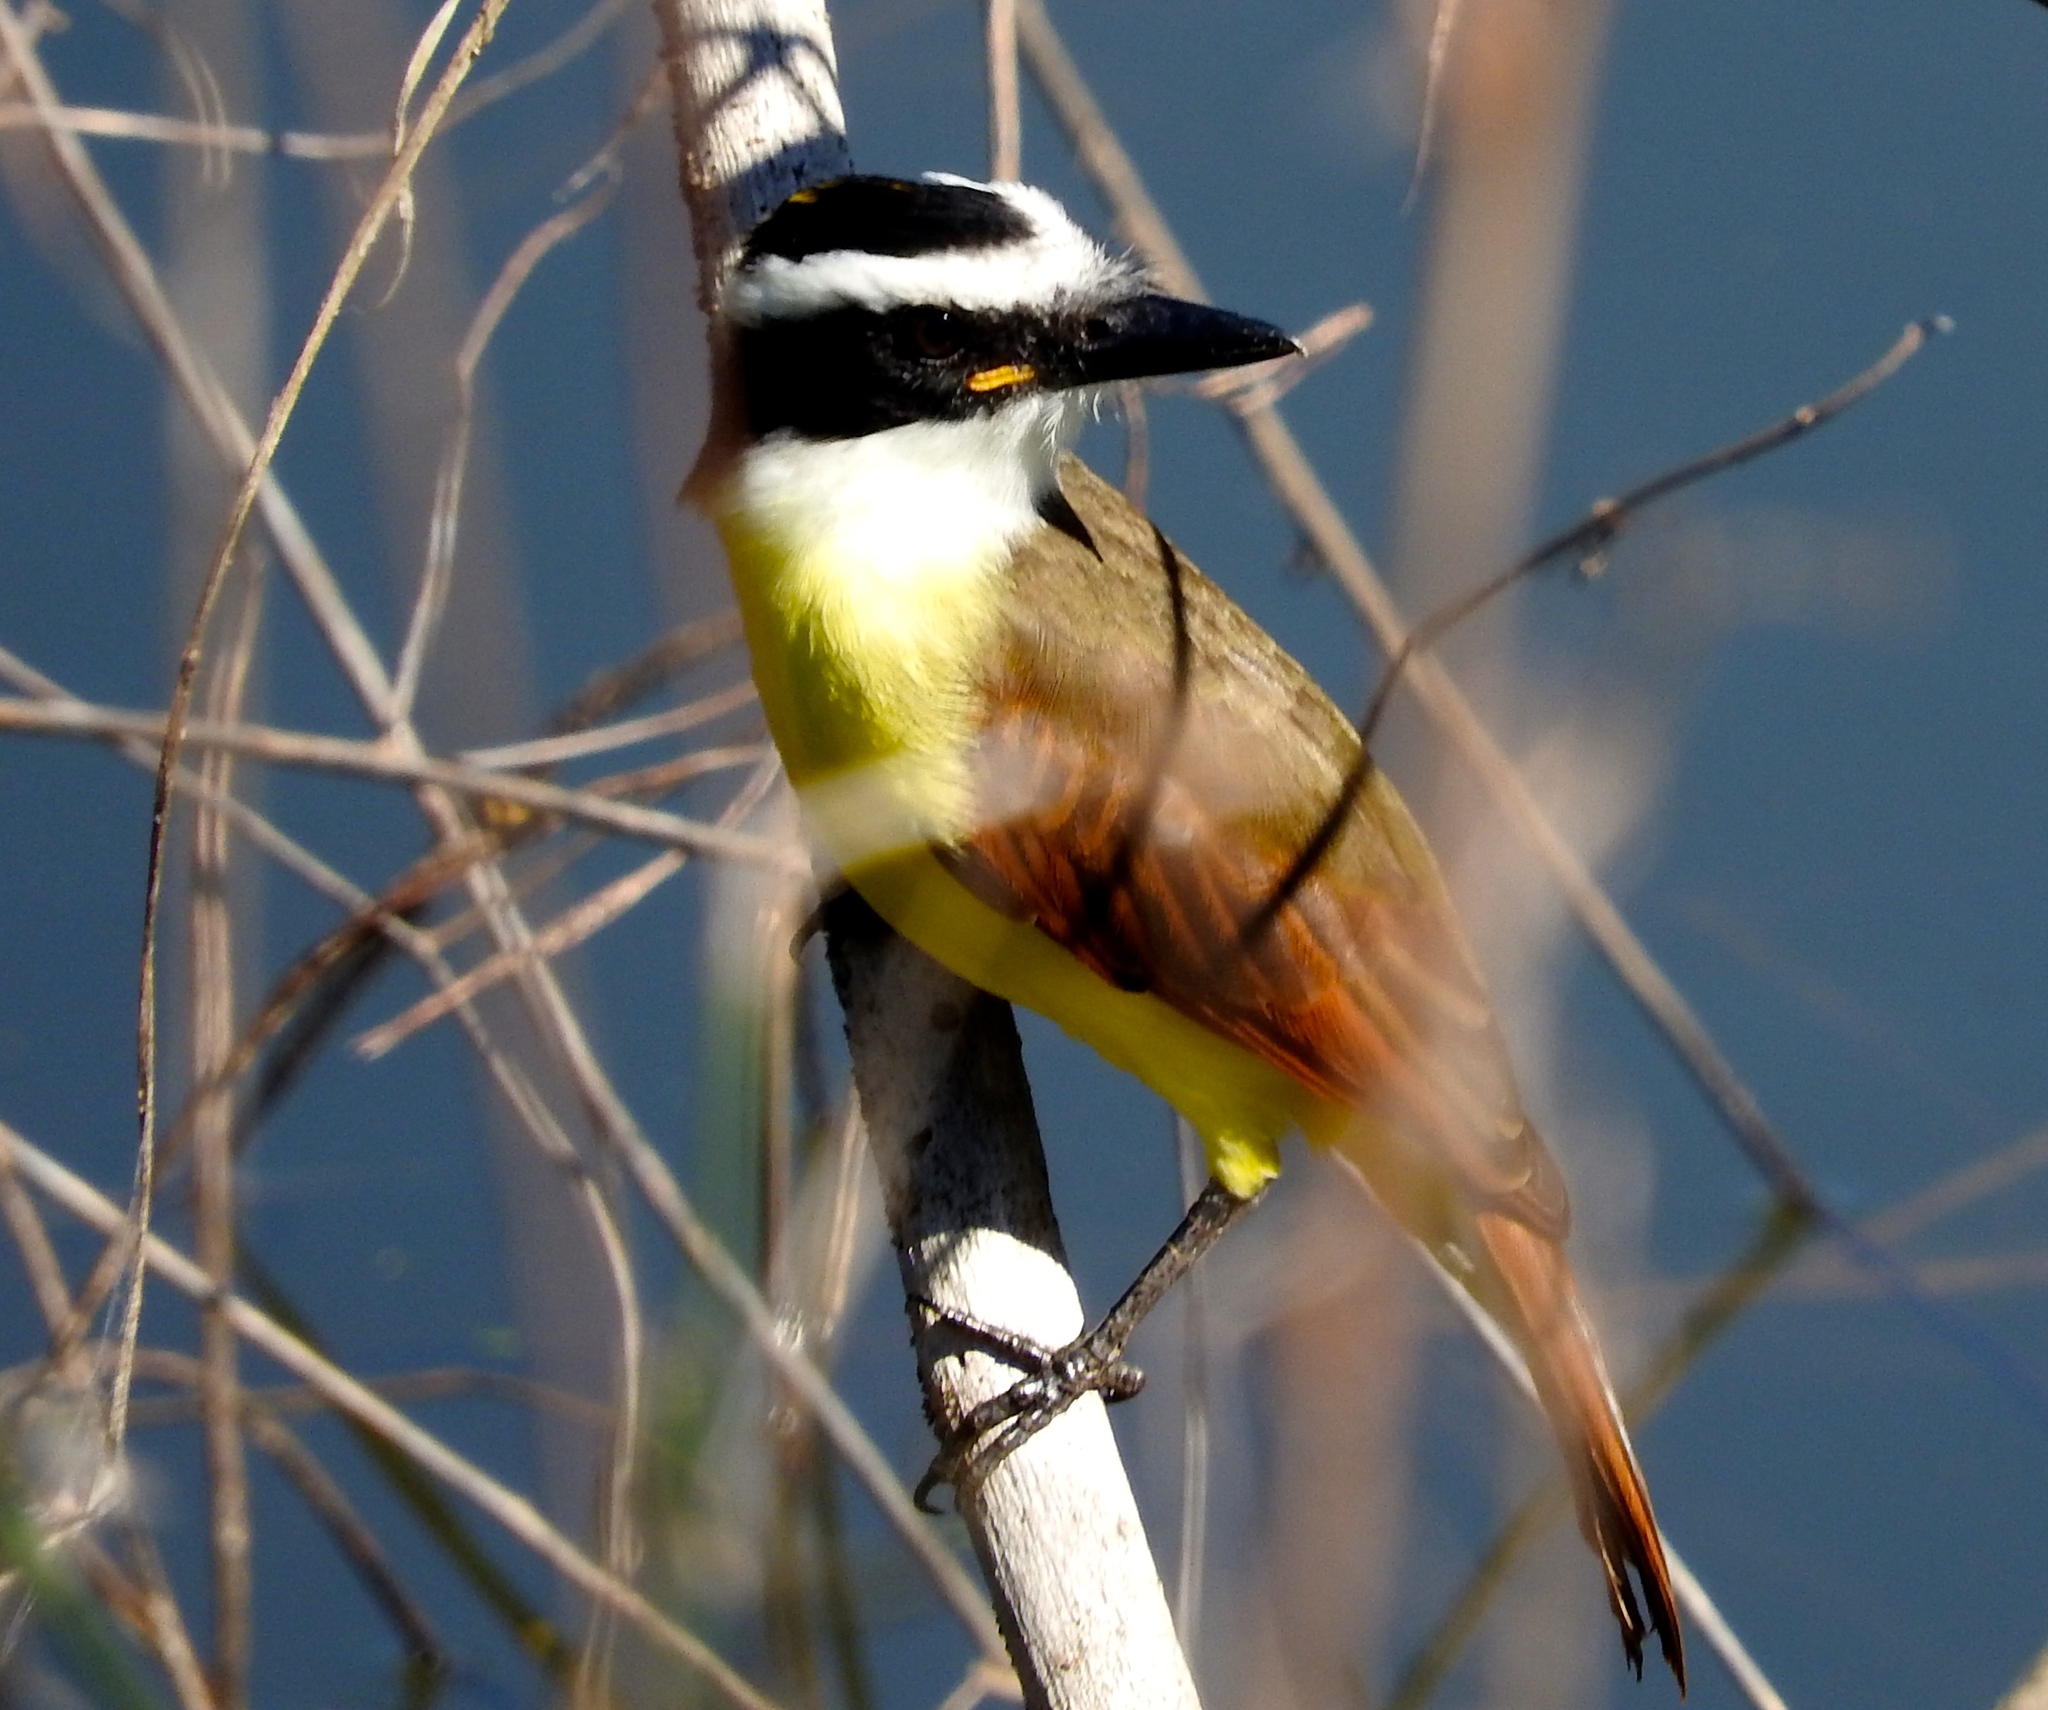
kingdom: Animalia
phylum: Chordata
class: Aves
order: Passeriformes
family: Tyrannidae
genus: Pitangus
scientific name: Pitangus sulphuratus
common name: Great kiskadee
